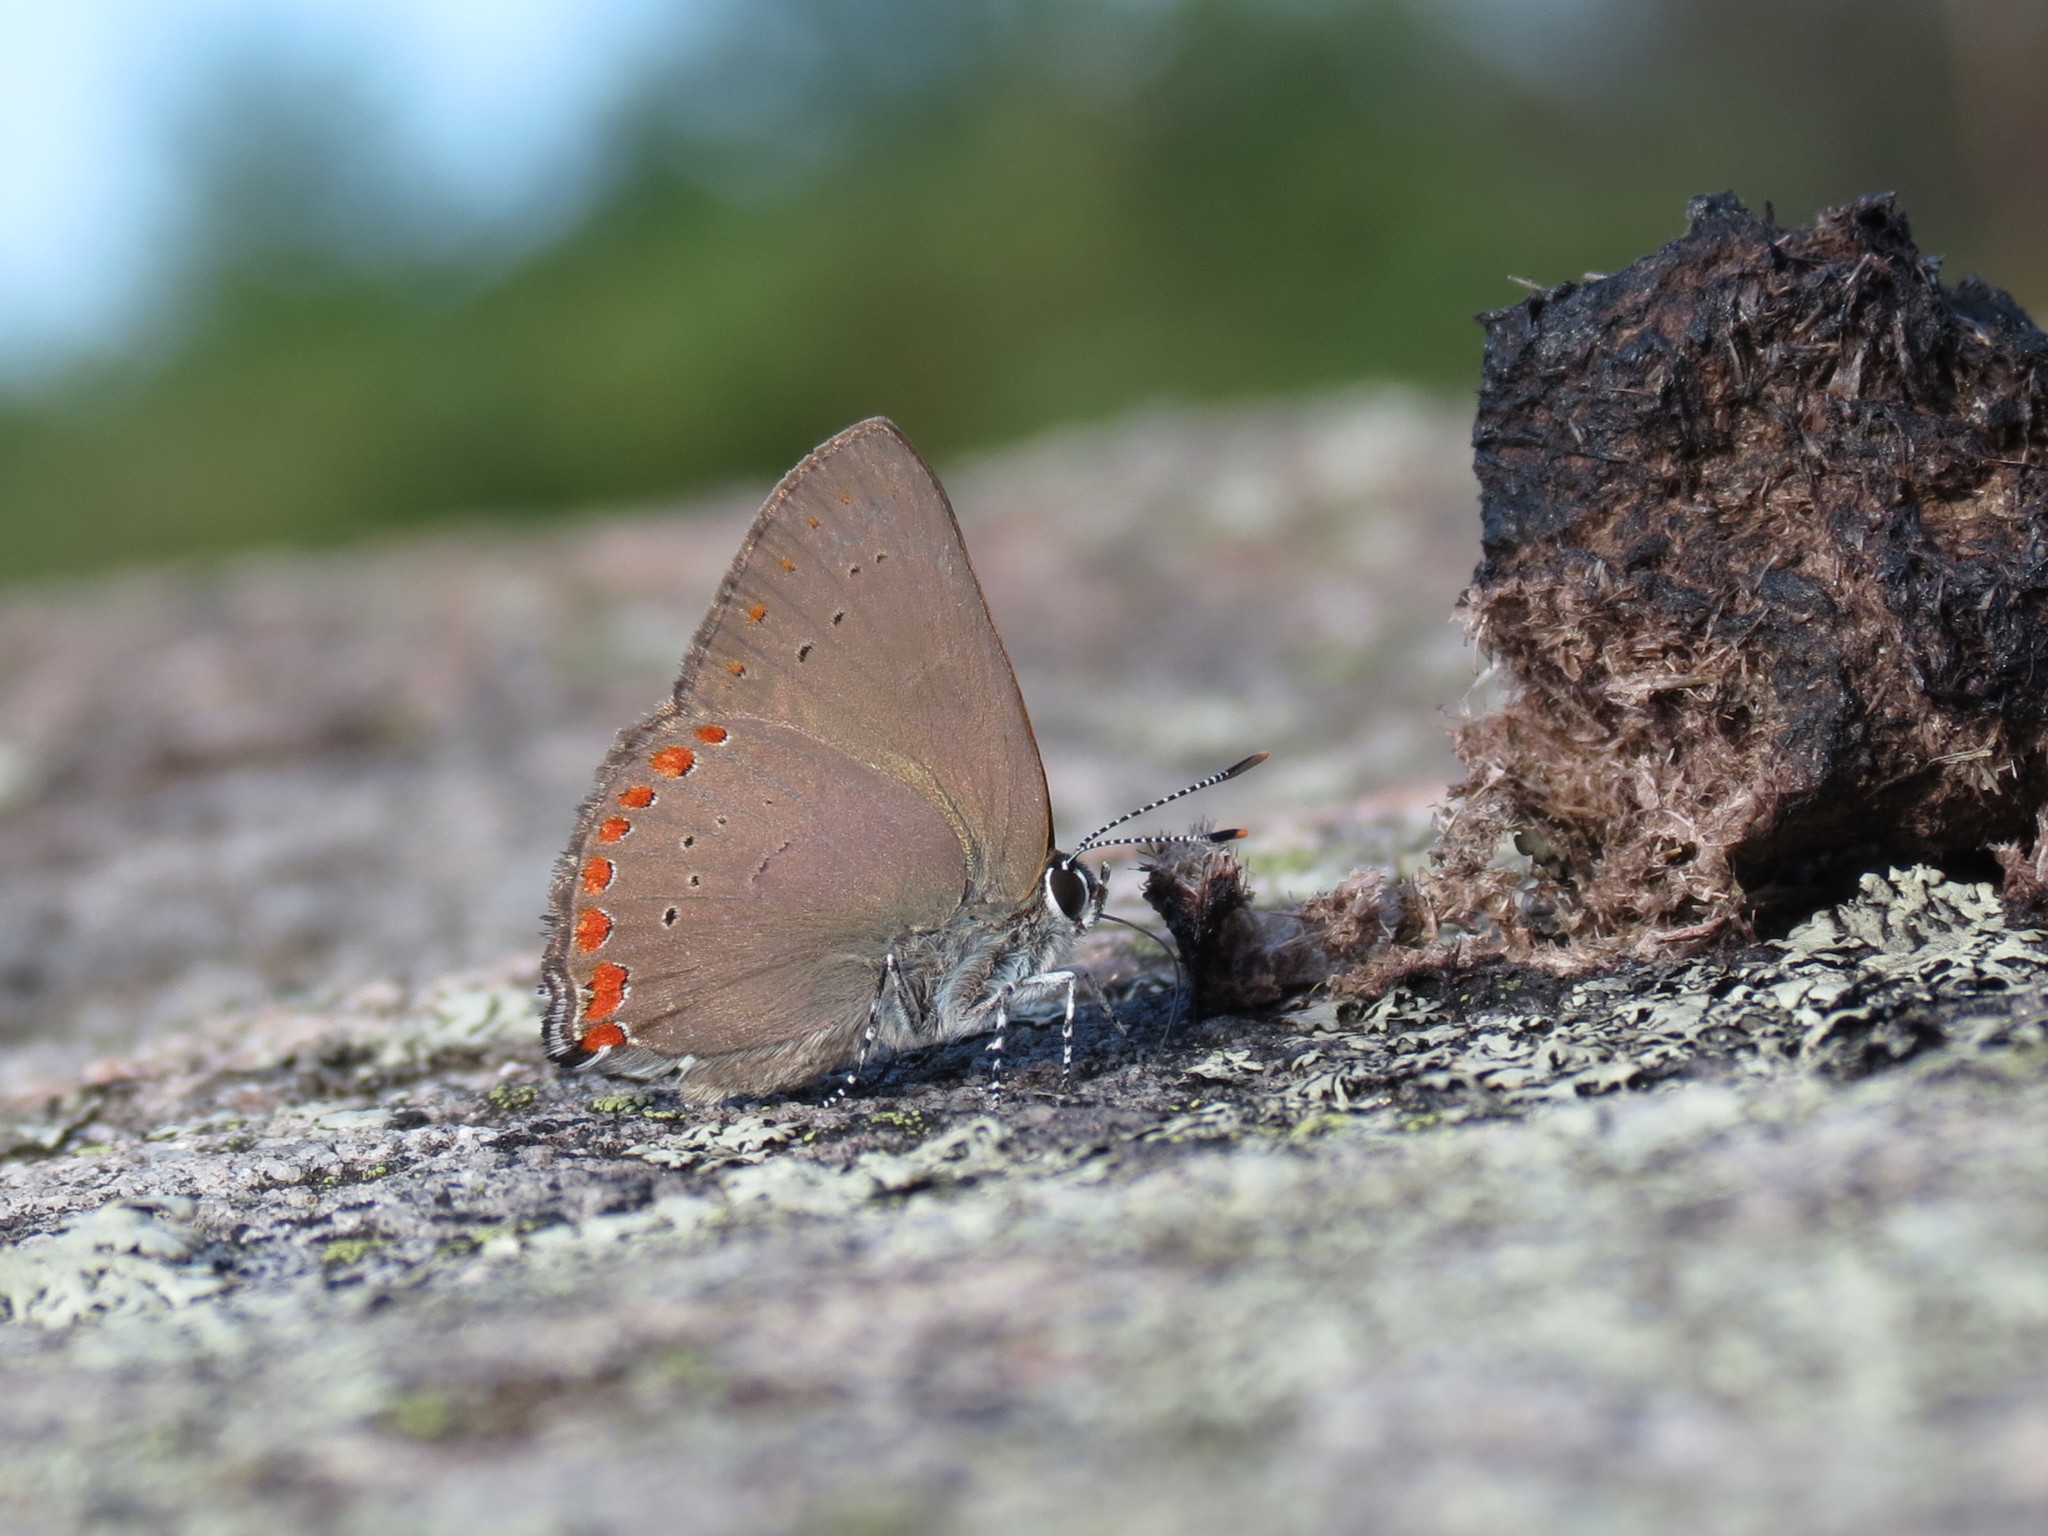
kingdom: Animalia
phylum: Arthropoda
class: Insecta
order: Lepidoptera
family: Lycaenidae
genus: Harkenclenus
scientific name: Harkenclenus titus
